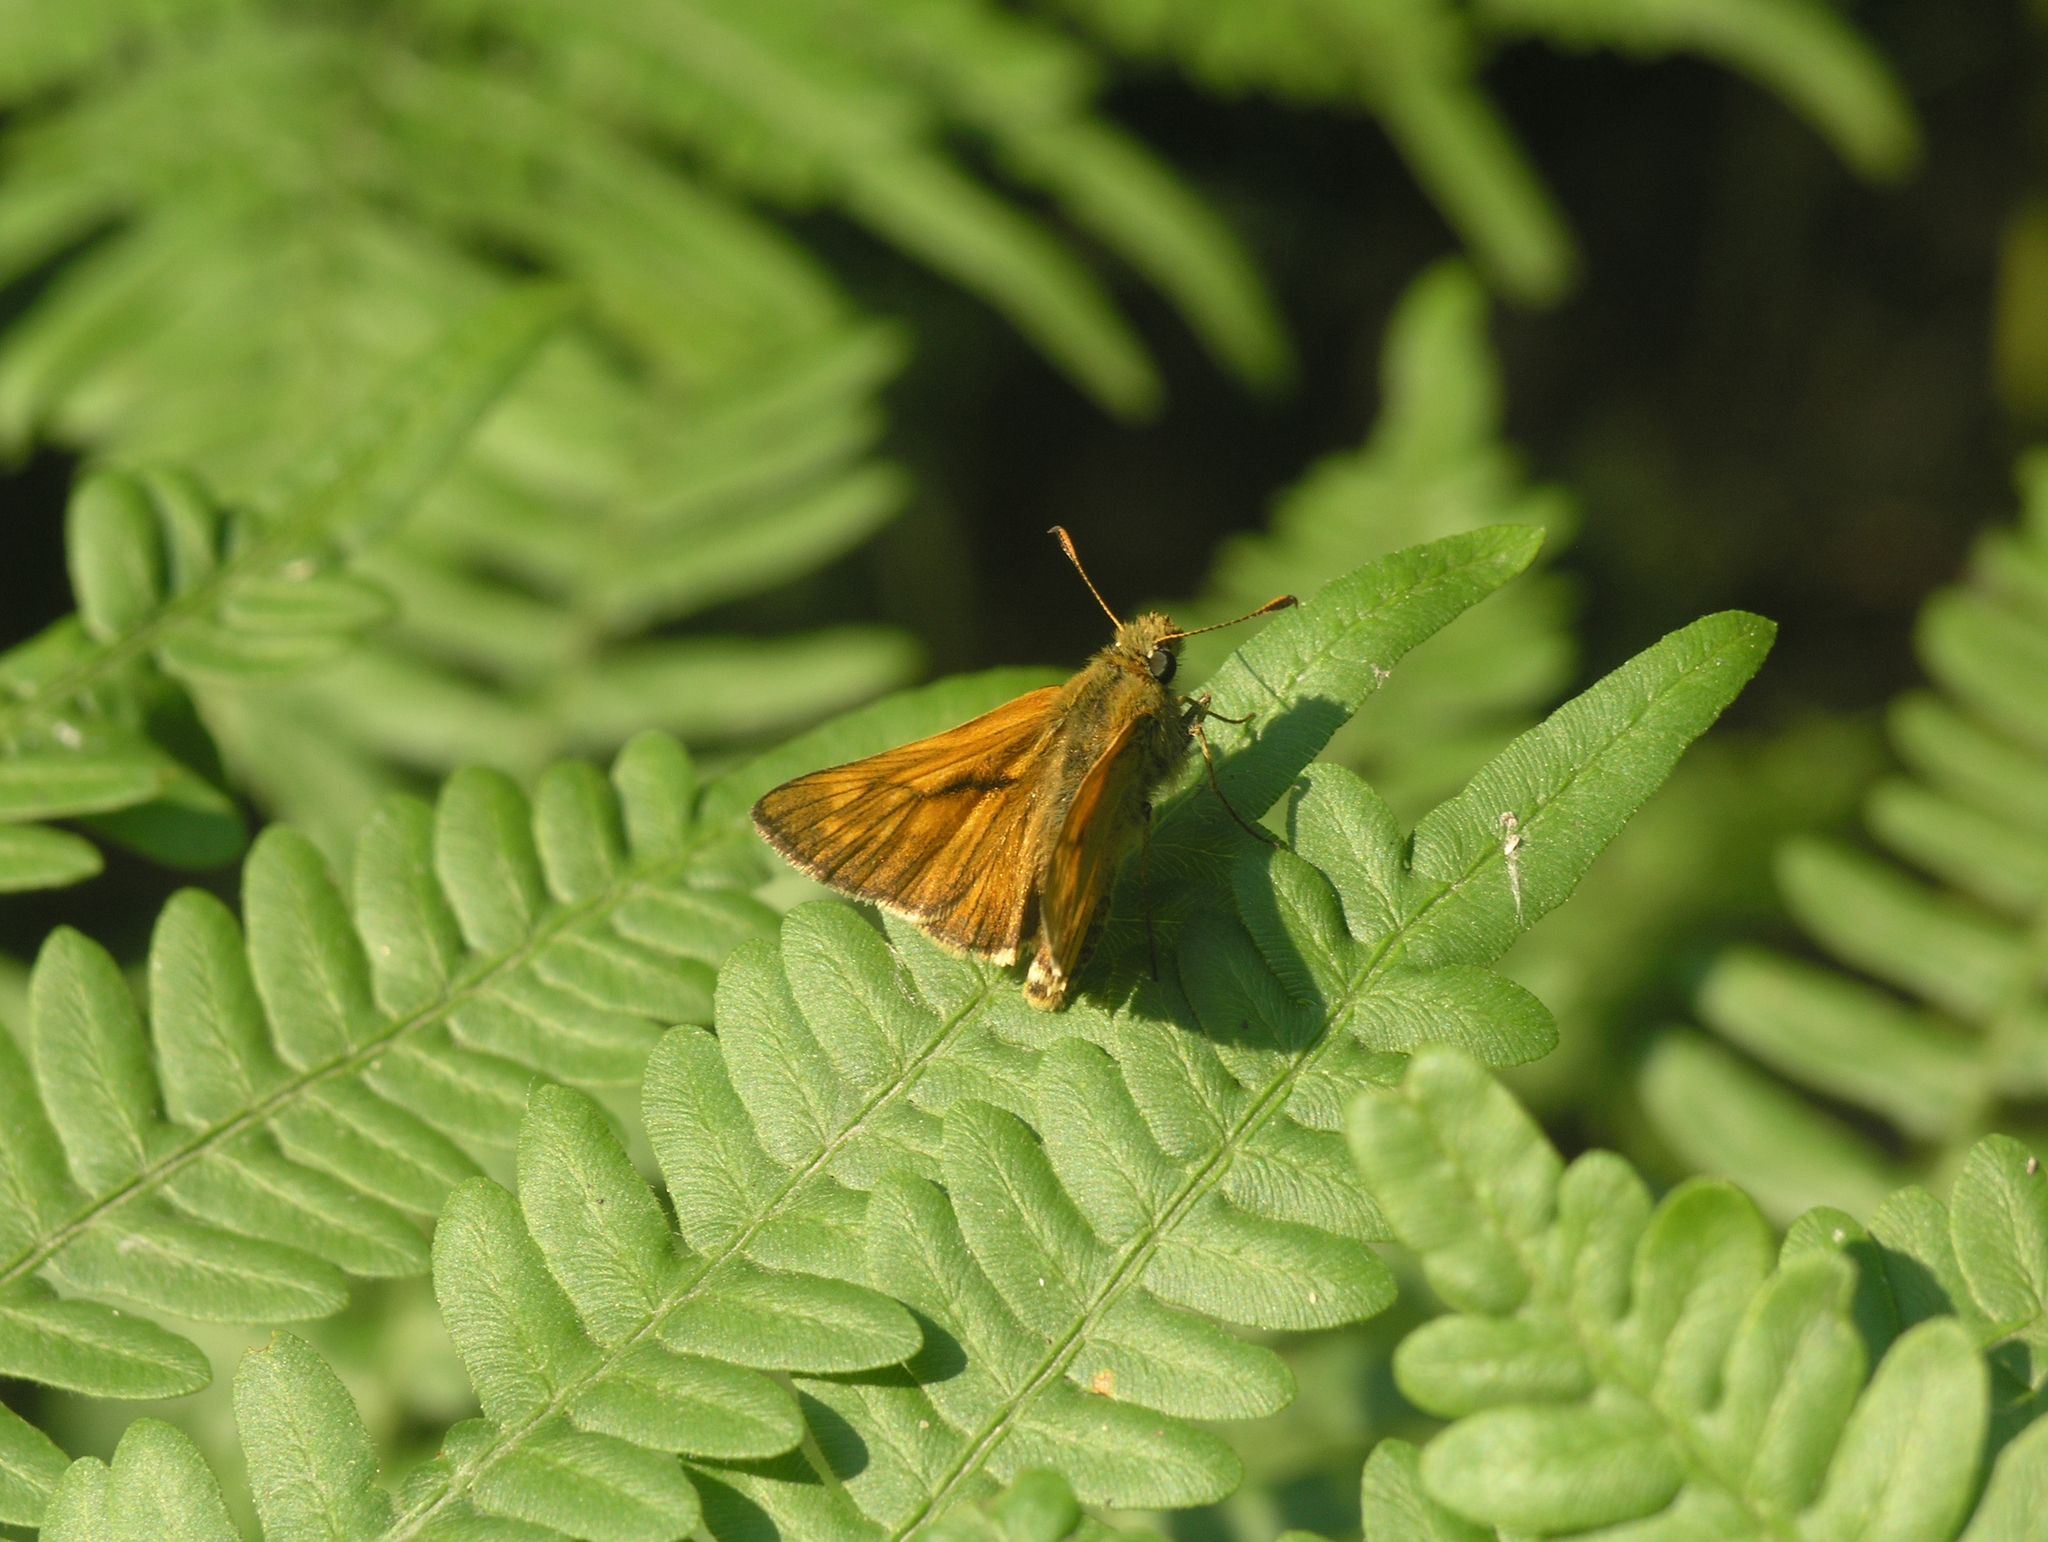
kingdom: Animalia
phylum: Arthropoda
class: Insecta
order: Lepidoptera
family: Hesperiidae
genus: Ochlodes
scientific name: Ochlodes venata
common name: Large skipper
